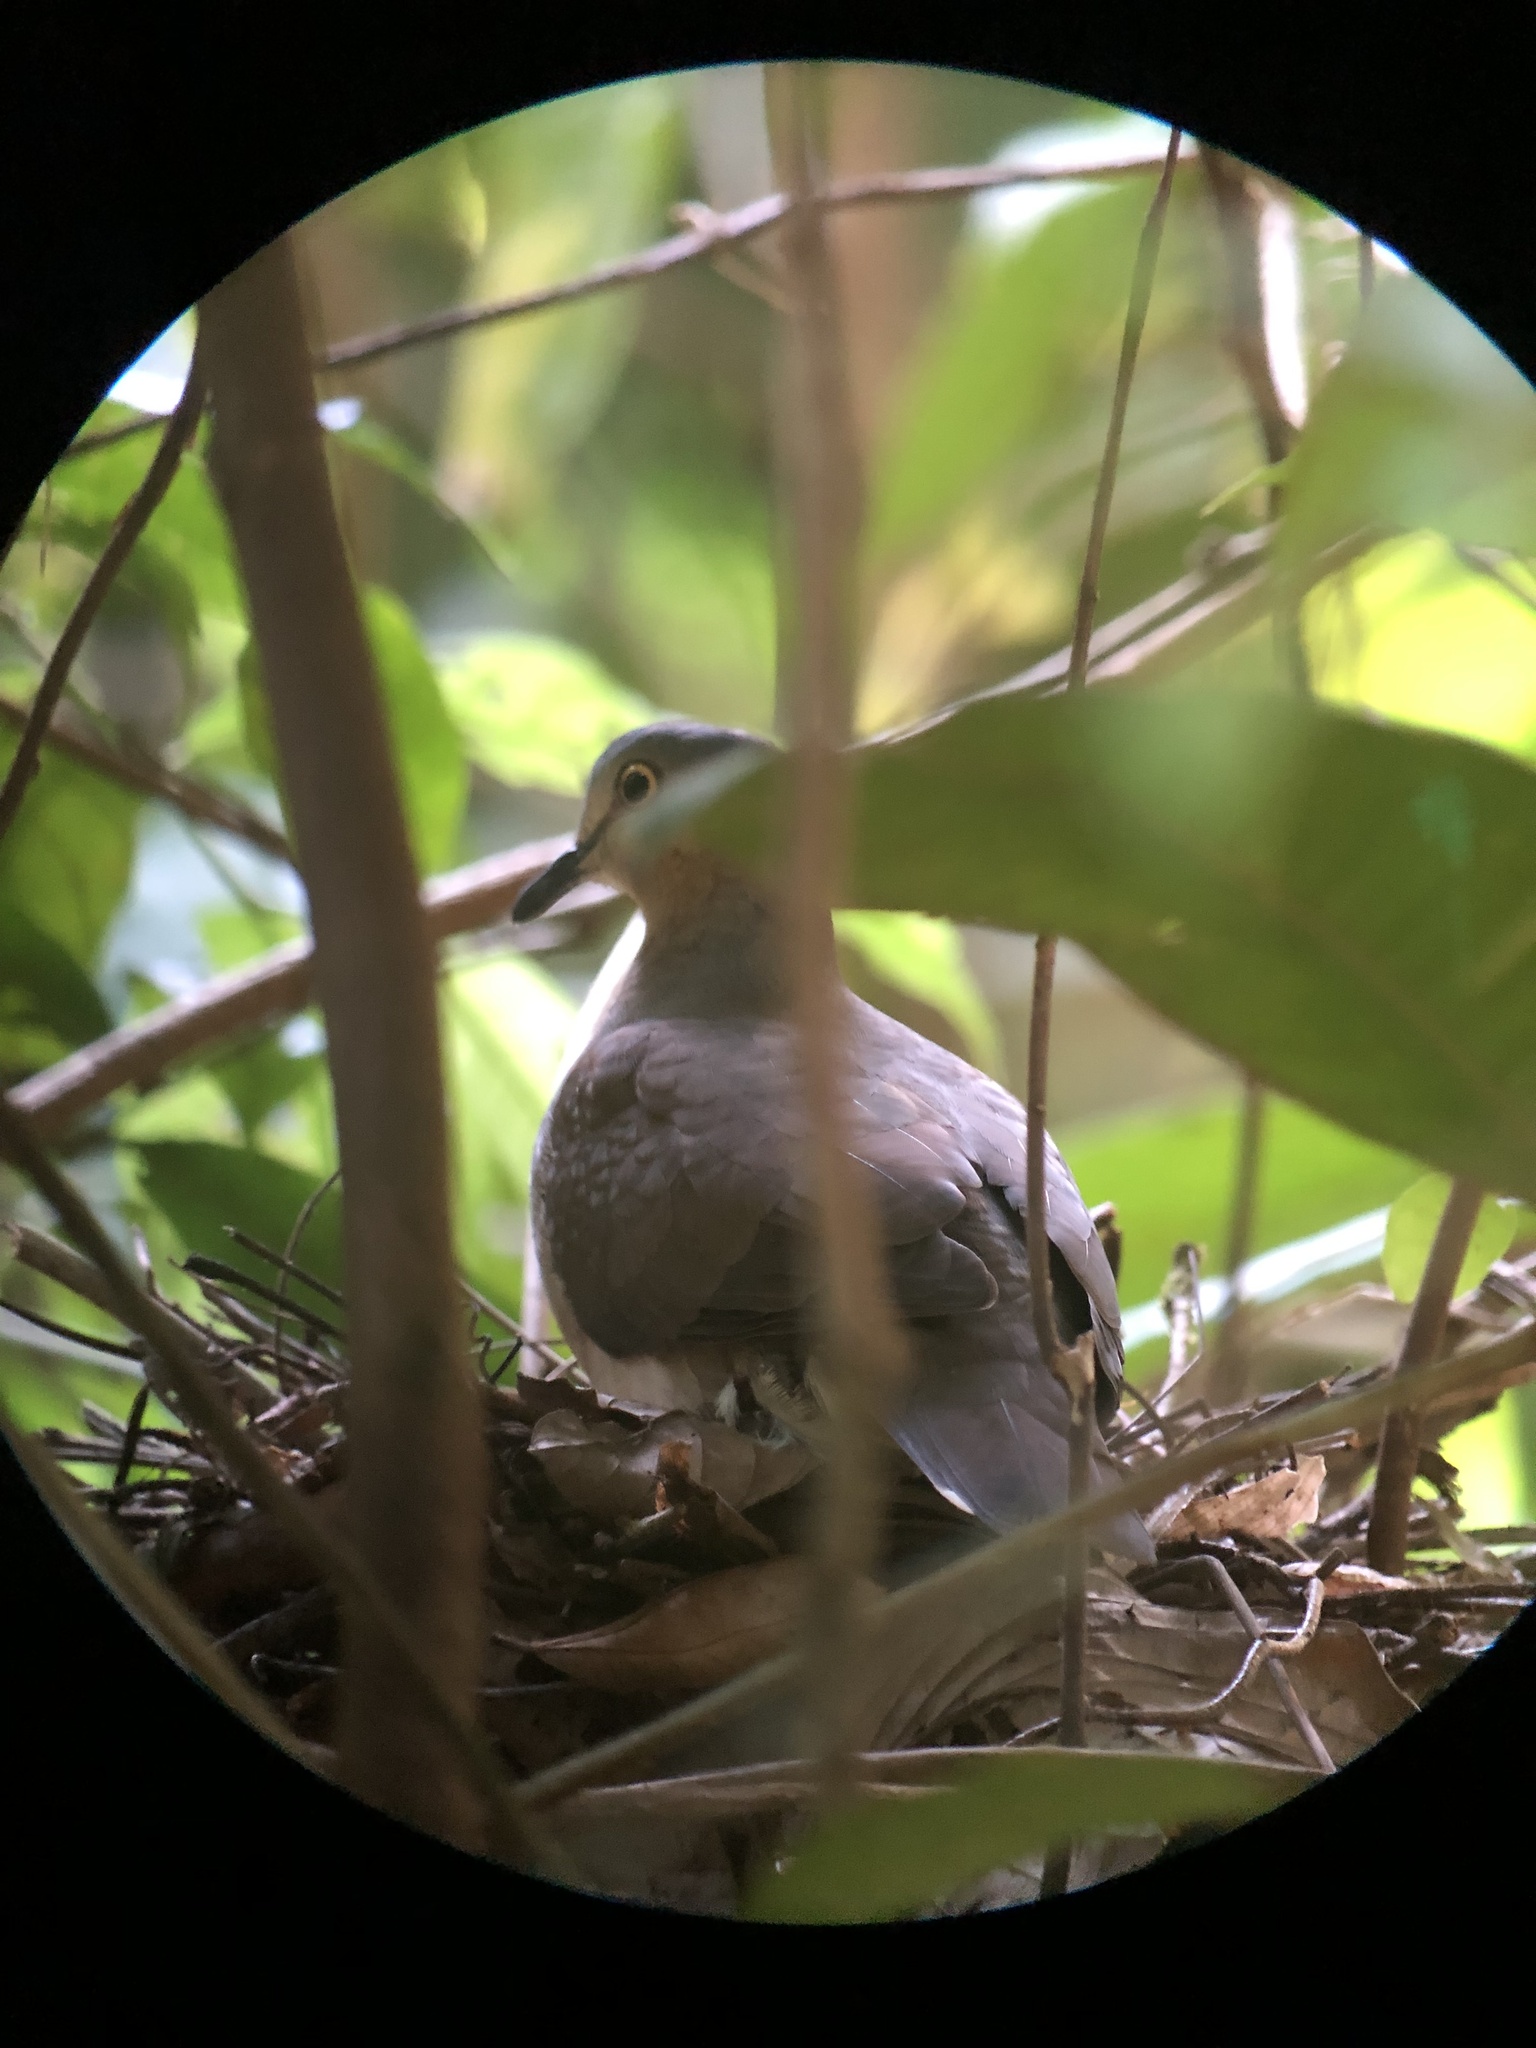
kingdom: Animalia
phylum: Chordata
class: Aves
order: Columbiformes
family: Columbidae
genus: Leptotila
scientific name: Leptotila plumbeiceps
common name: Grey-headed dove
